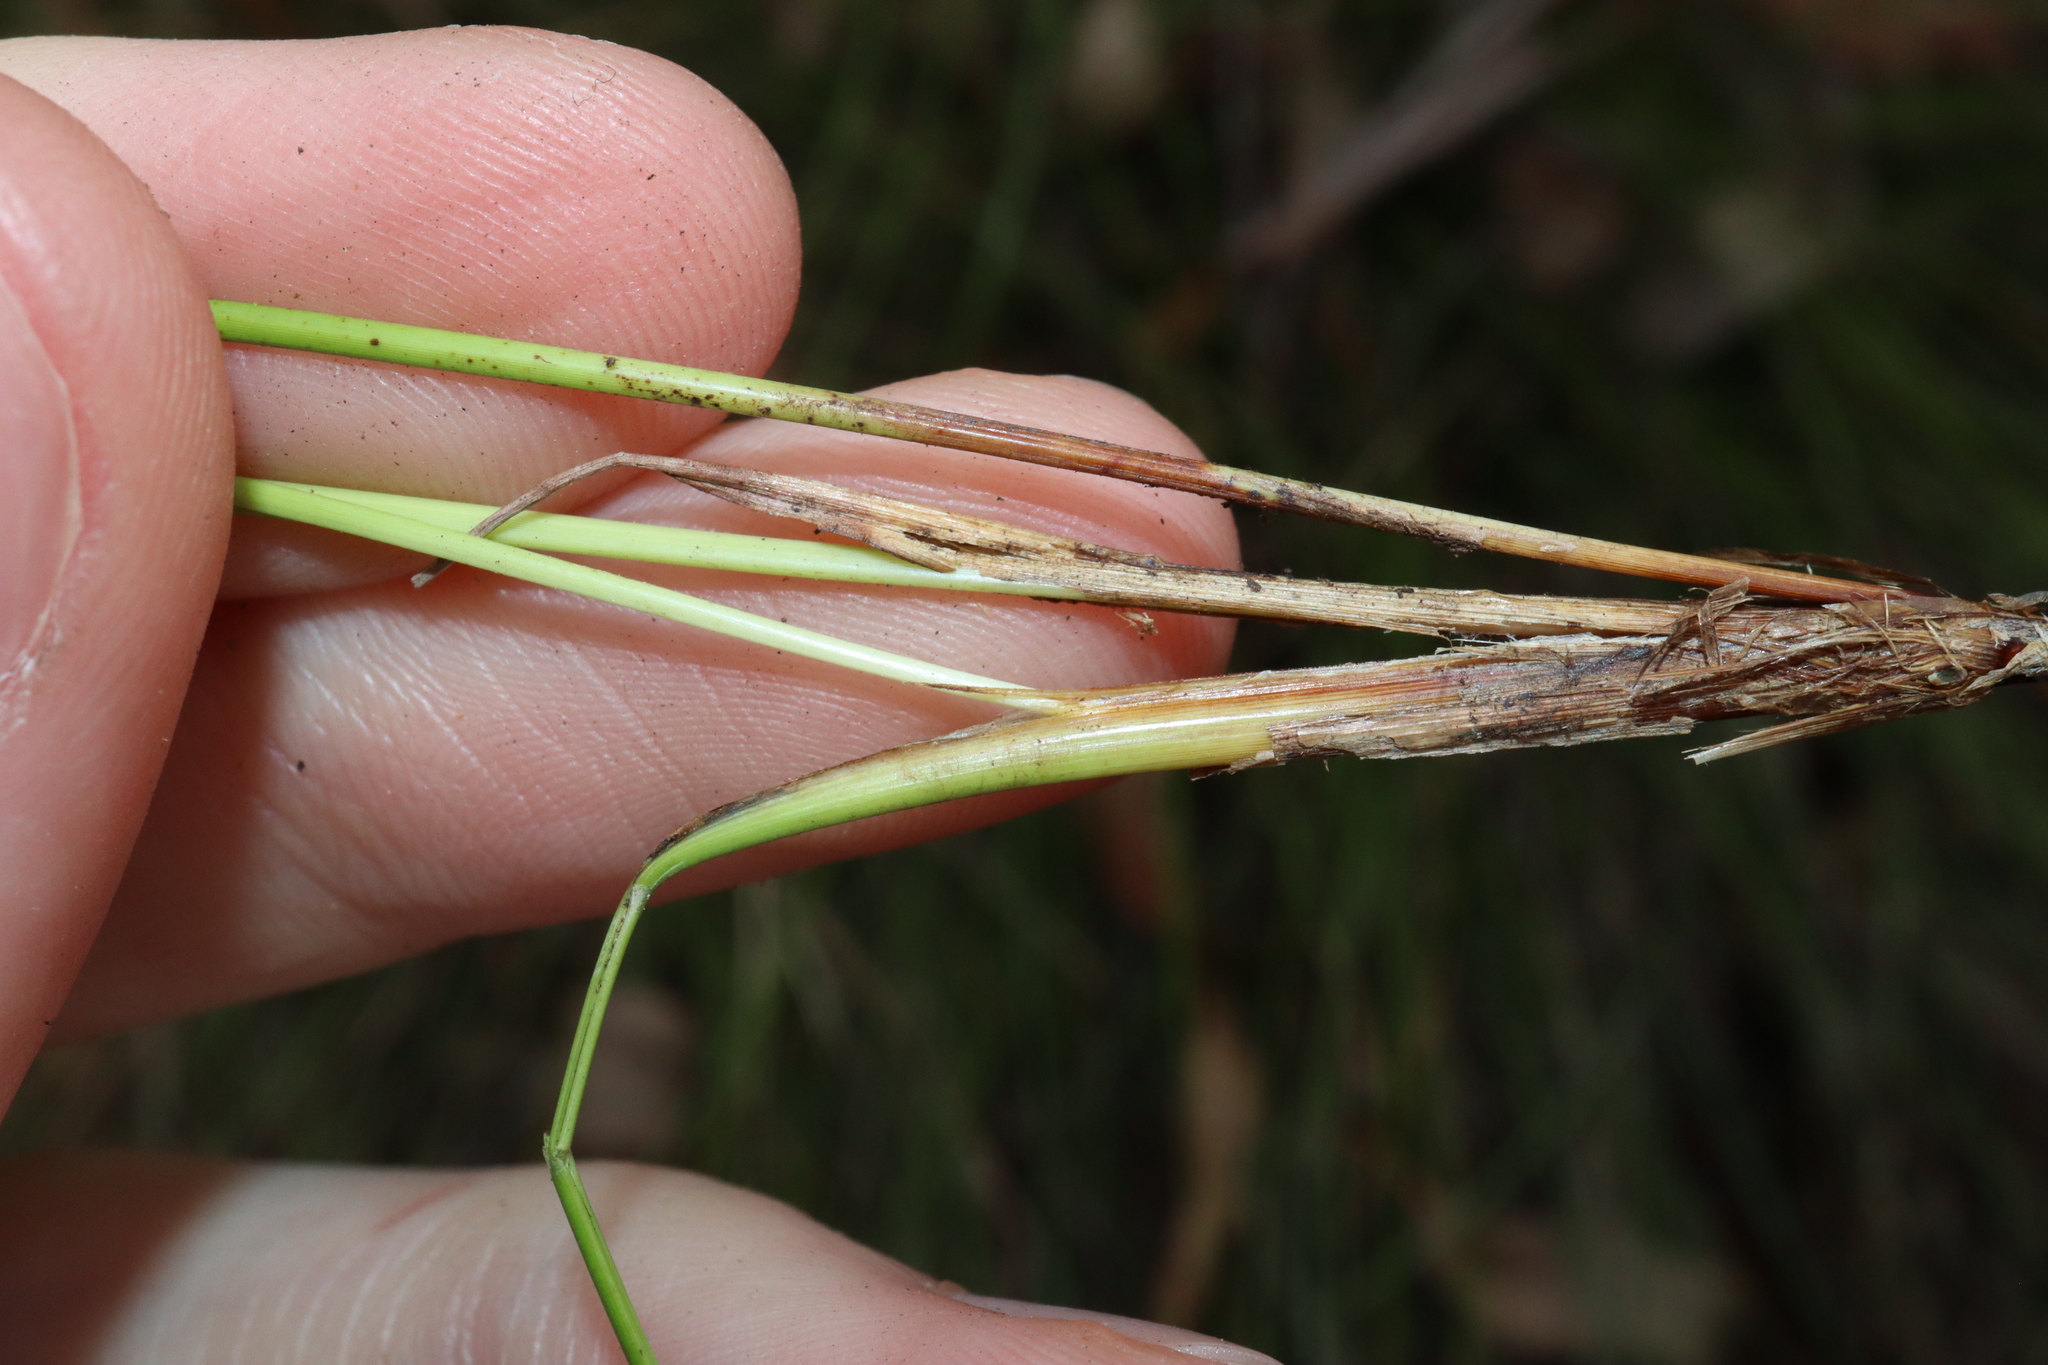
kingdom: Plantae
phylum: Tracheophyta
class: Liliopsida
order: Poales
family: Cyperaceae
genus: Lepidosperma
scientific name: Lepidosperma laterale
